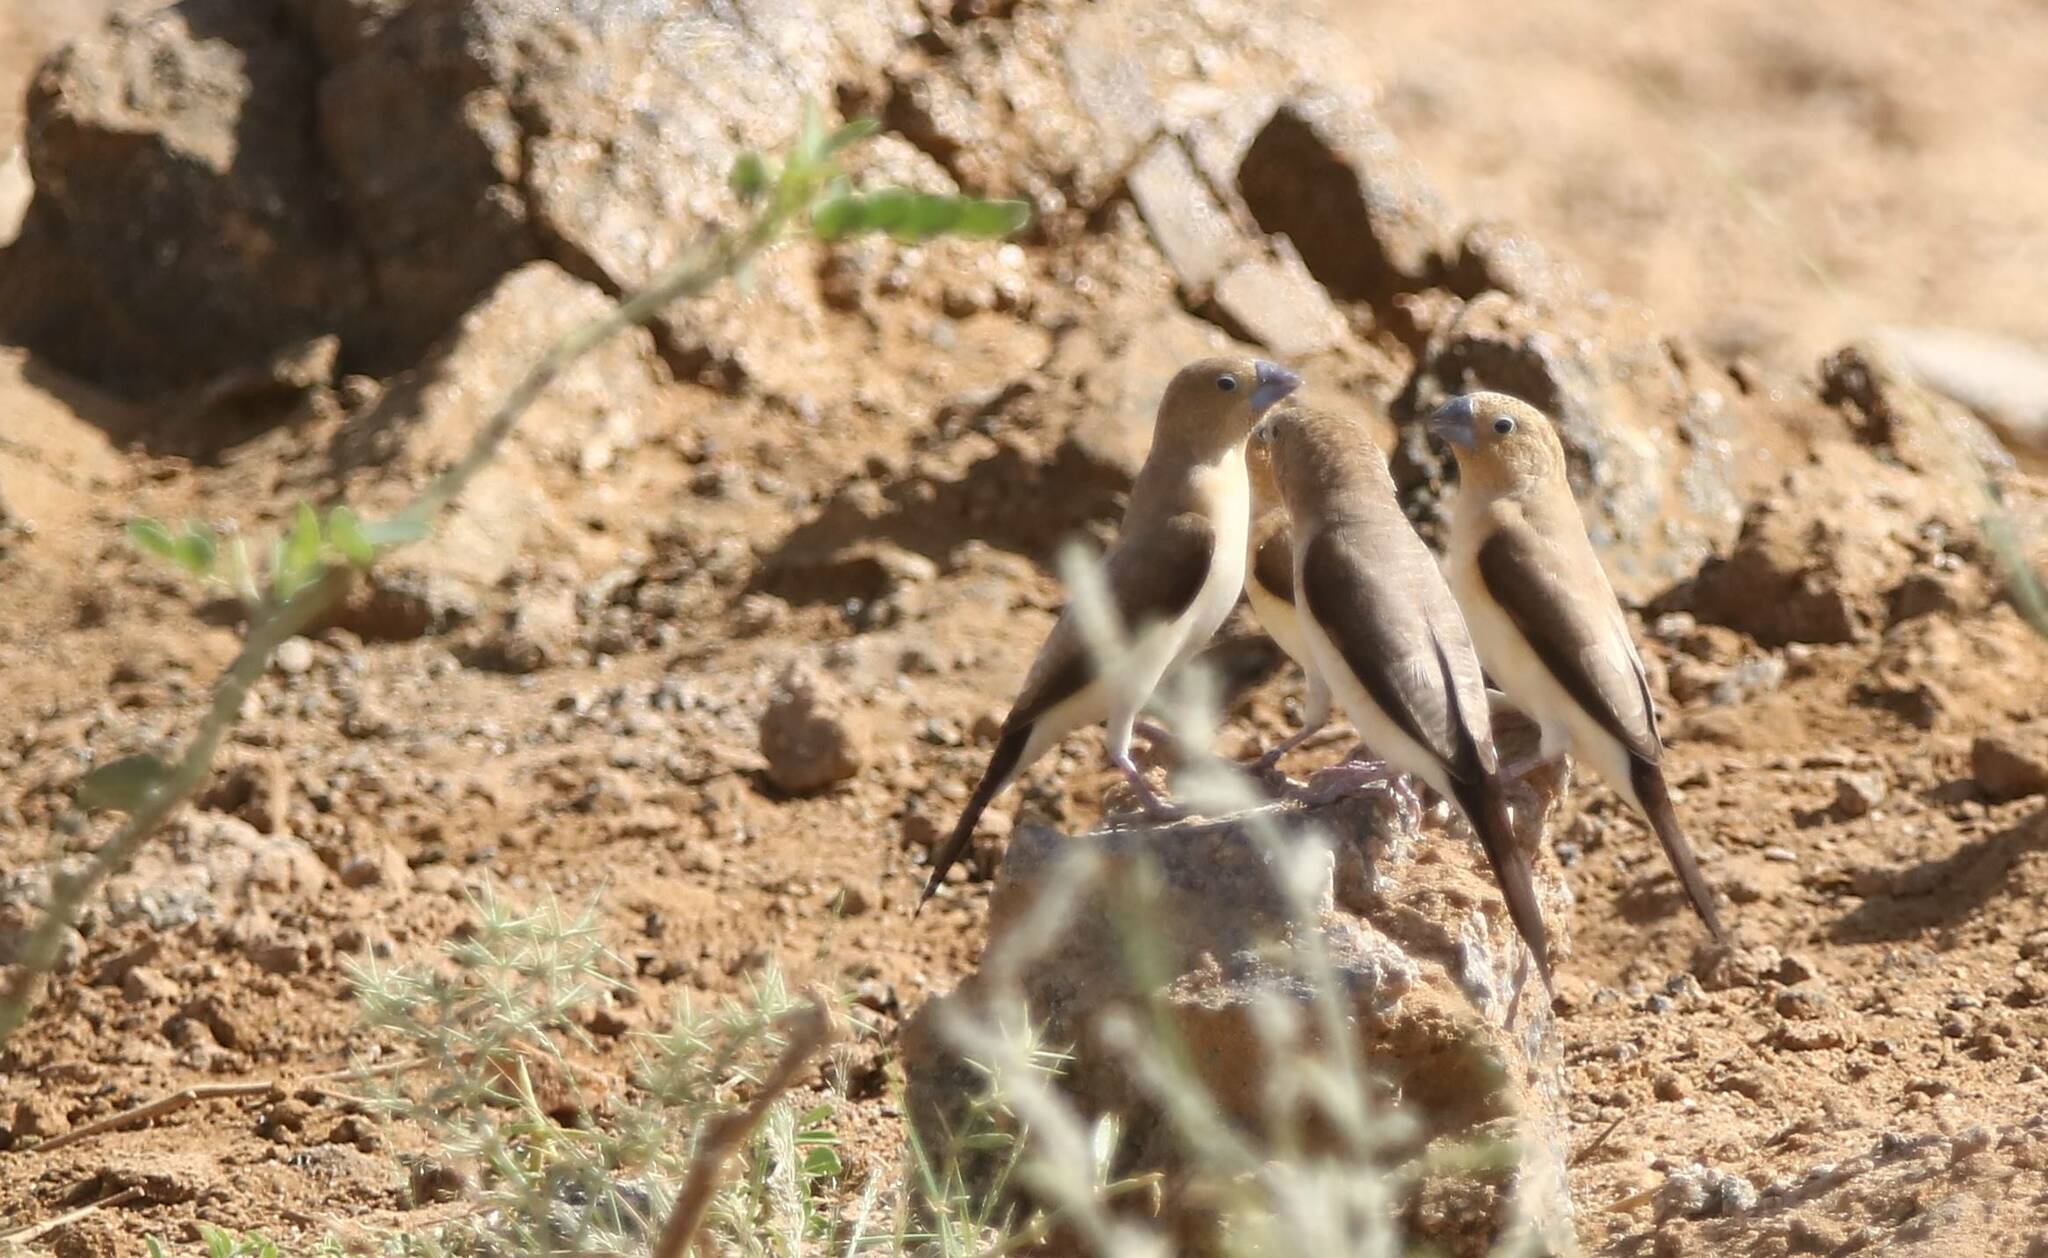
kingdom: Animalia
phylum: Chordata
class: Aves
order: Passeriformes
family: Estrildidae
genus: Euodice
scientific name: Euodice cantans
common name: African silverbill
